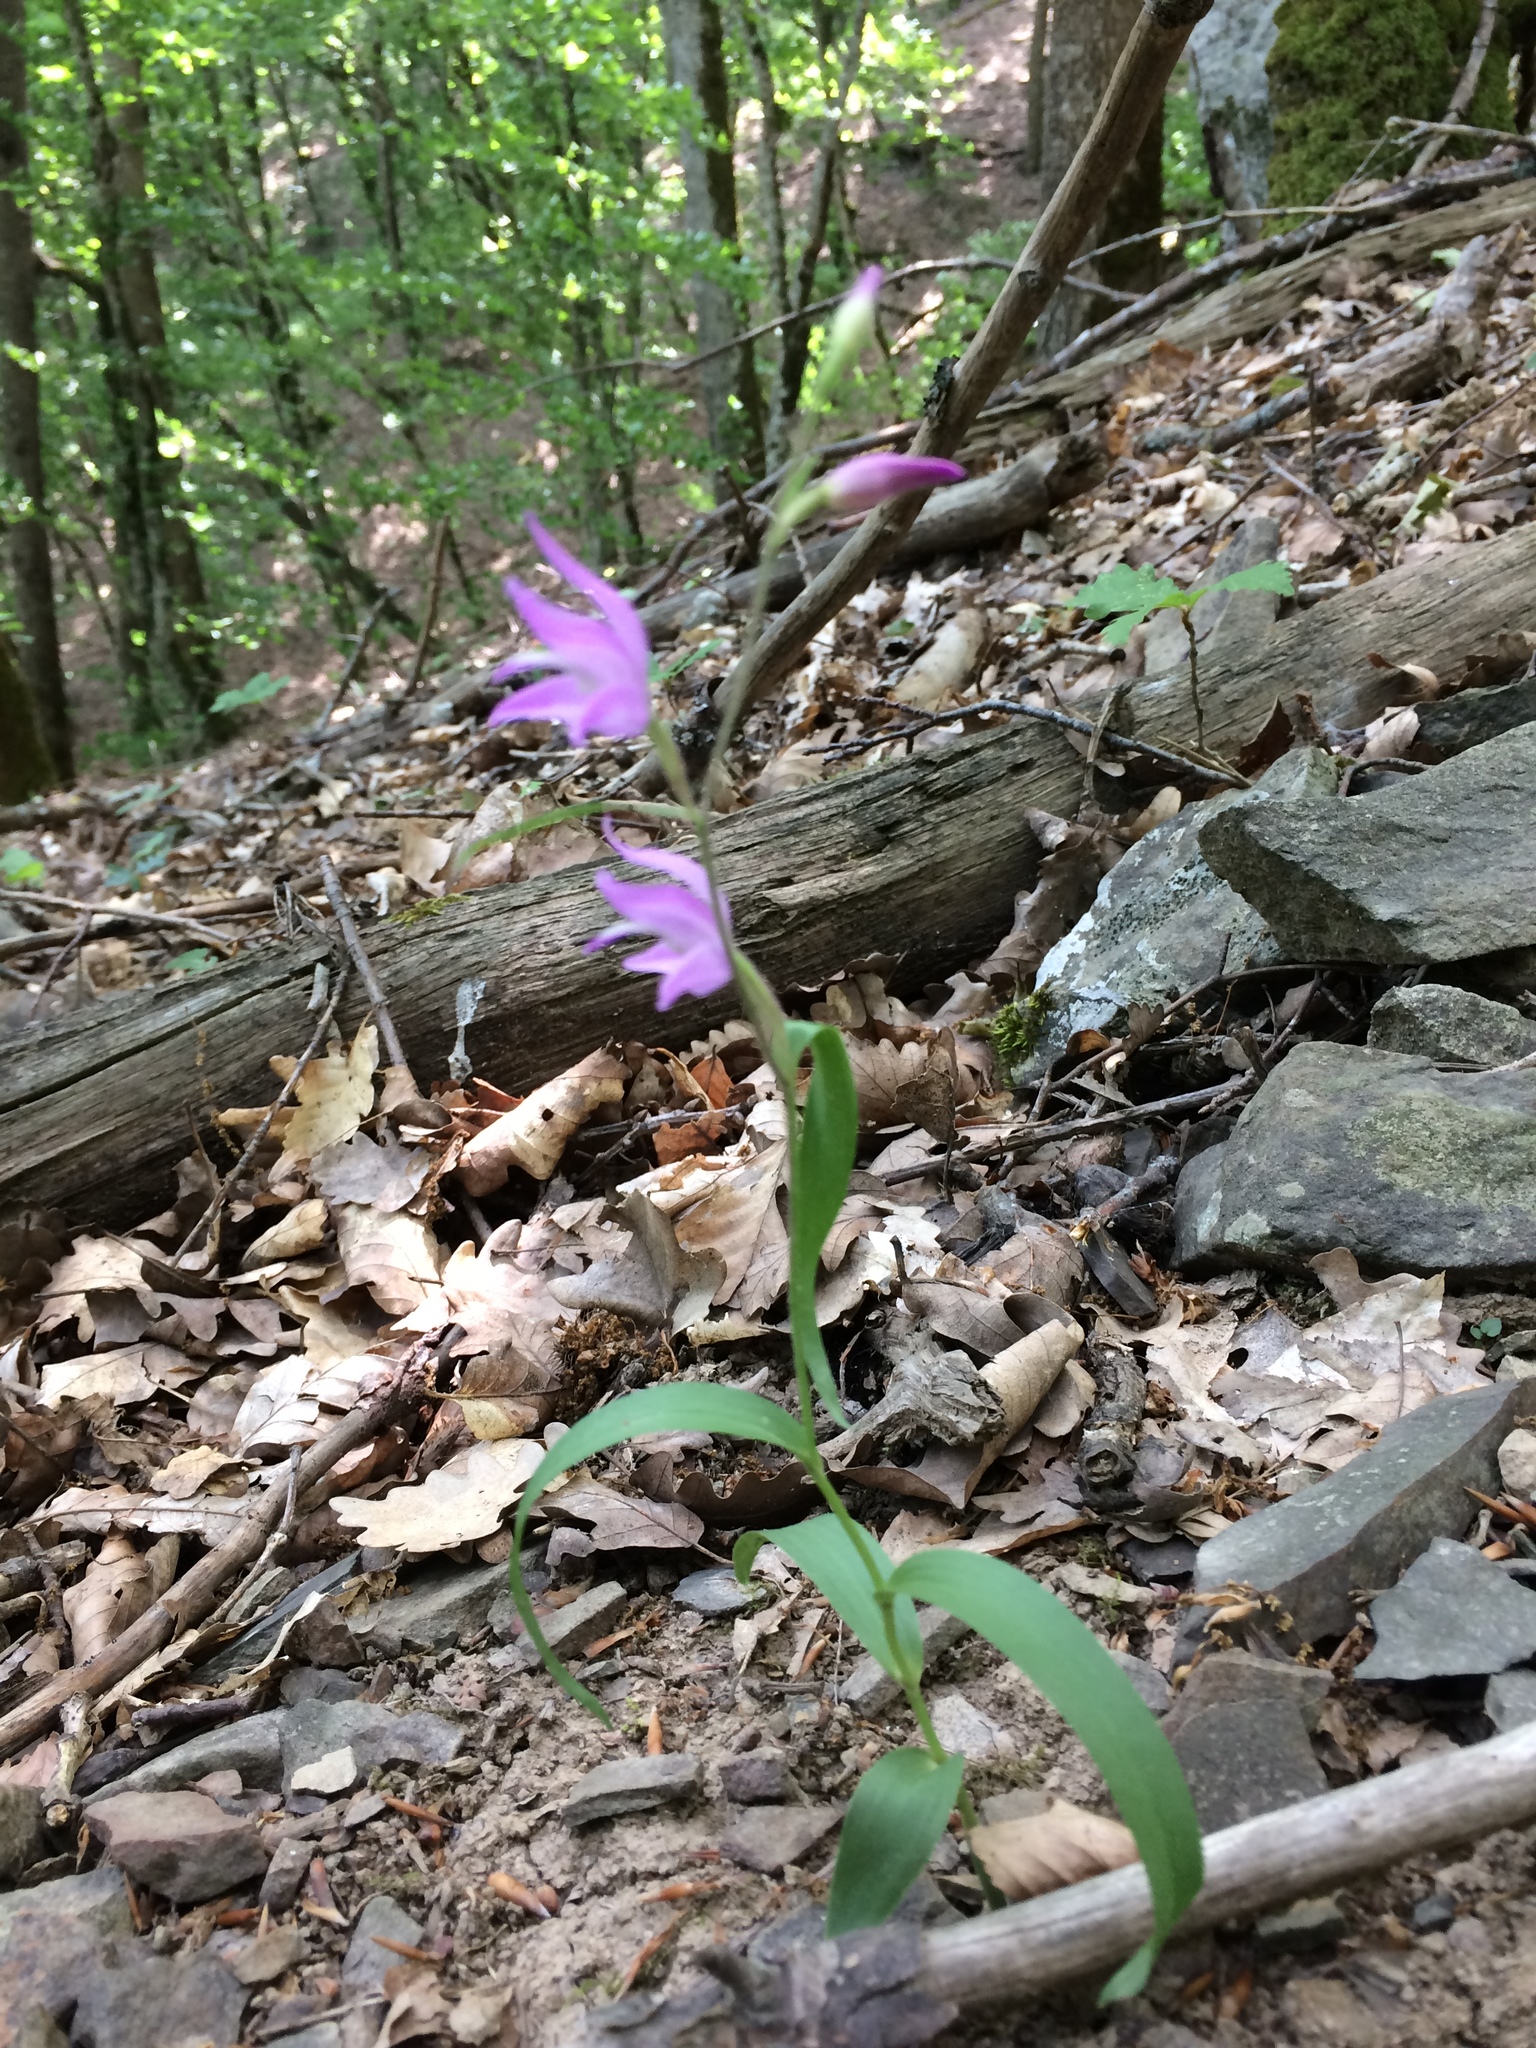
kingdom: Plantae
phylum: Tracheophyta
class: Liliopsida
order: Asparagales
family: Orchidaceae
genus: Cephalanthera
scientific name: Cephalanthera rubra
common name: Red helleborine
